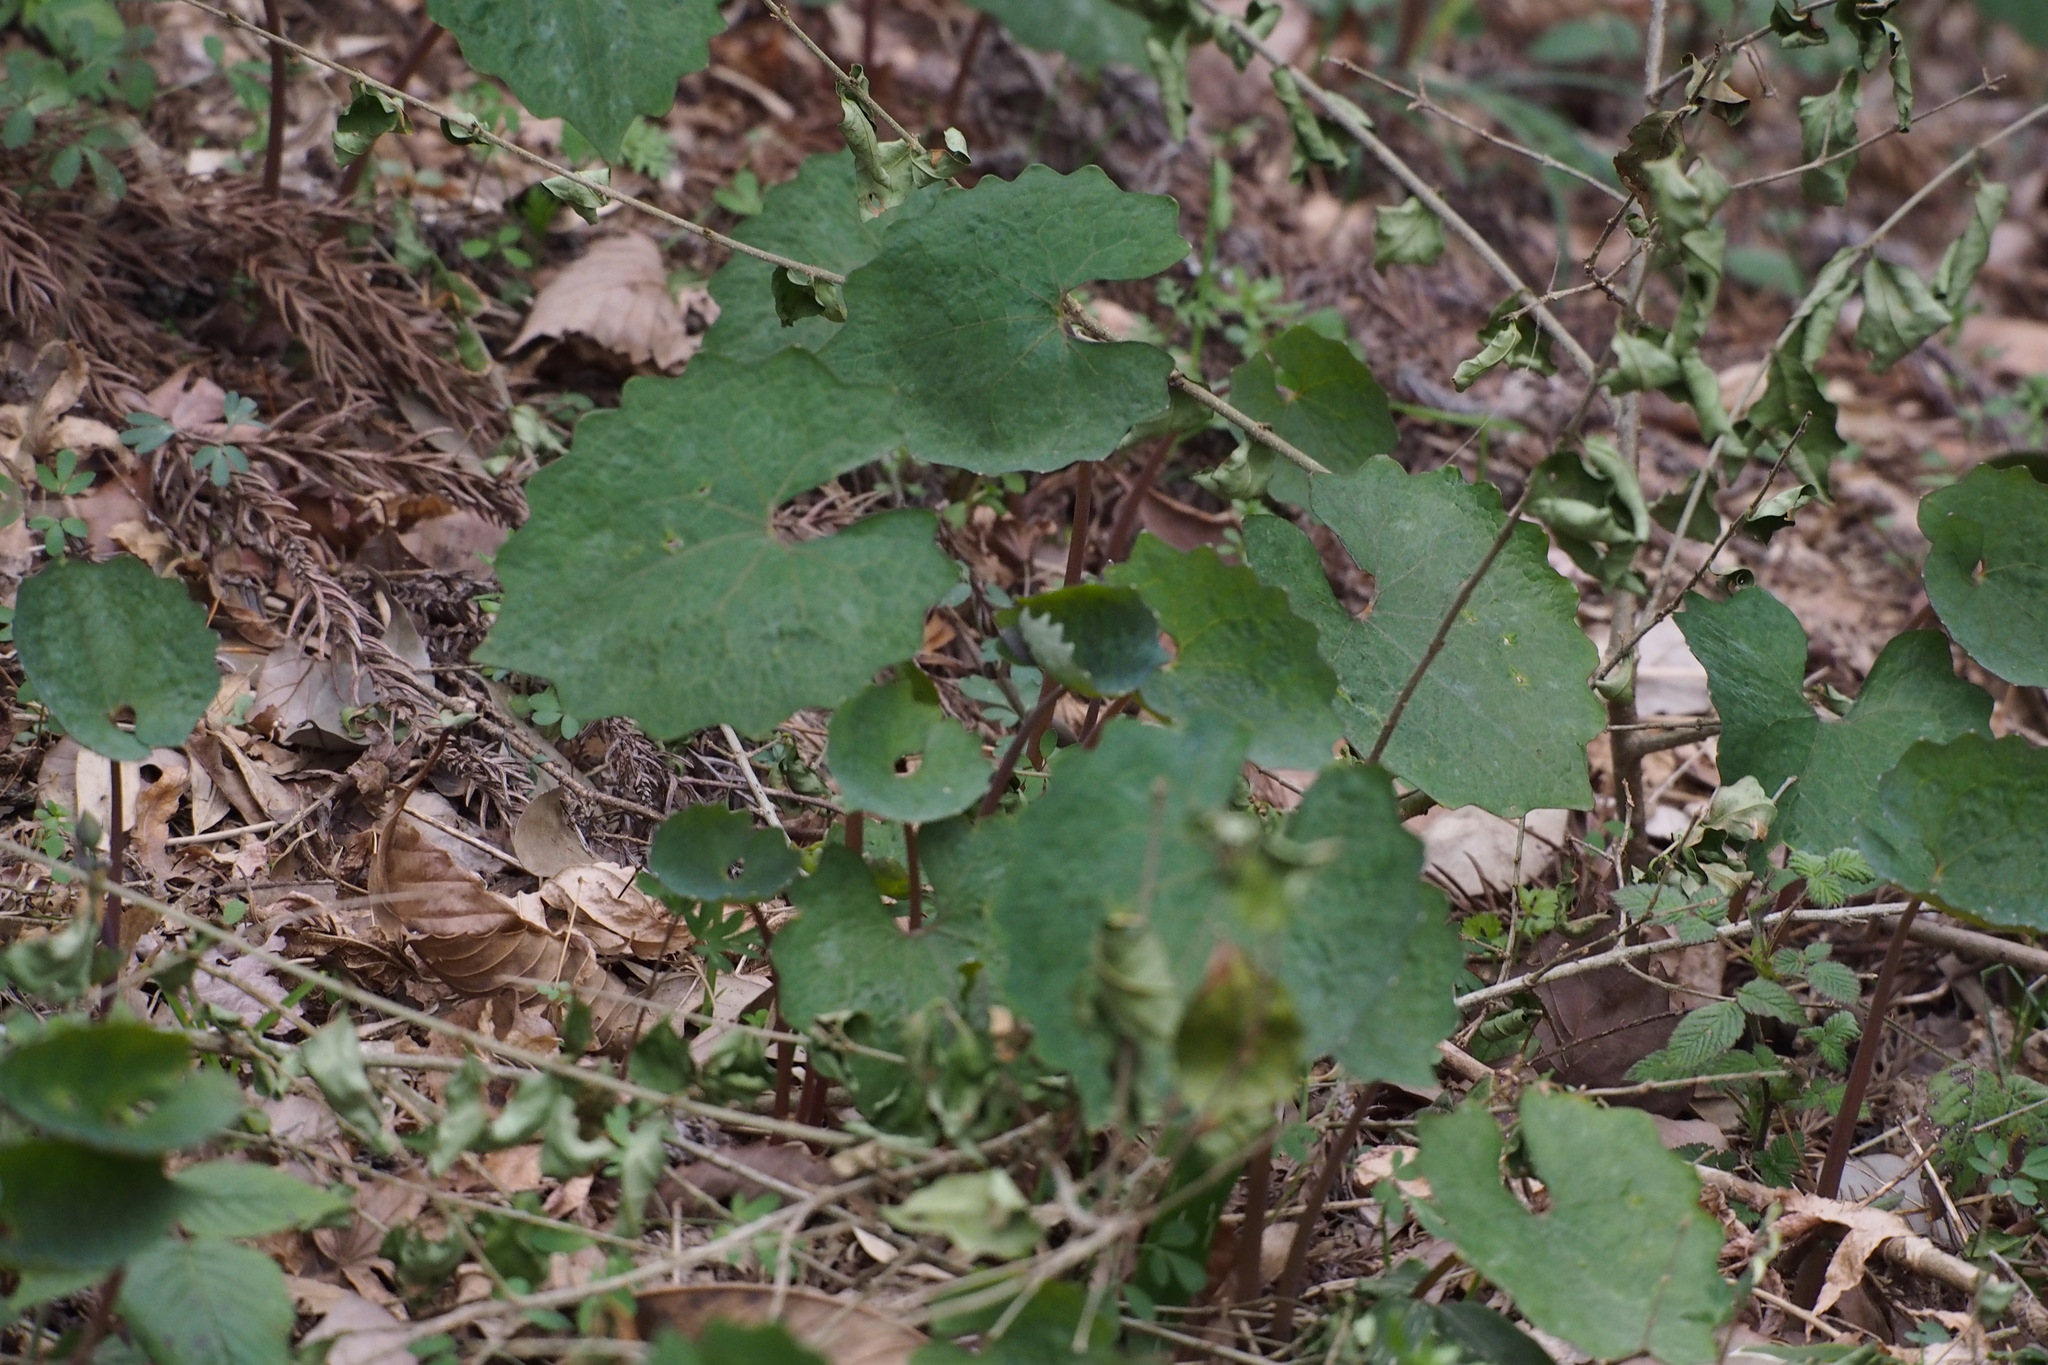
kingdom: Plantae
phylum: Tracheophyta
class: Magnoliopsida
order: Ranunculales
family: Papaveraceae
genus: Eomecon
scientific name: Eomecon chionantha
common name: Dawn-poppy
